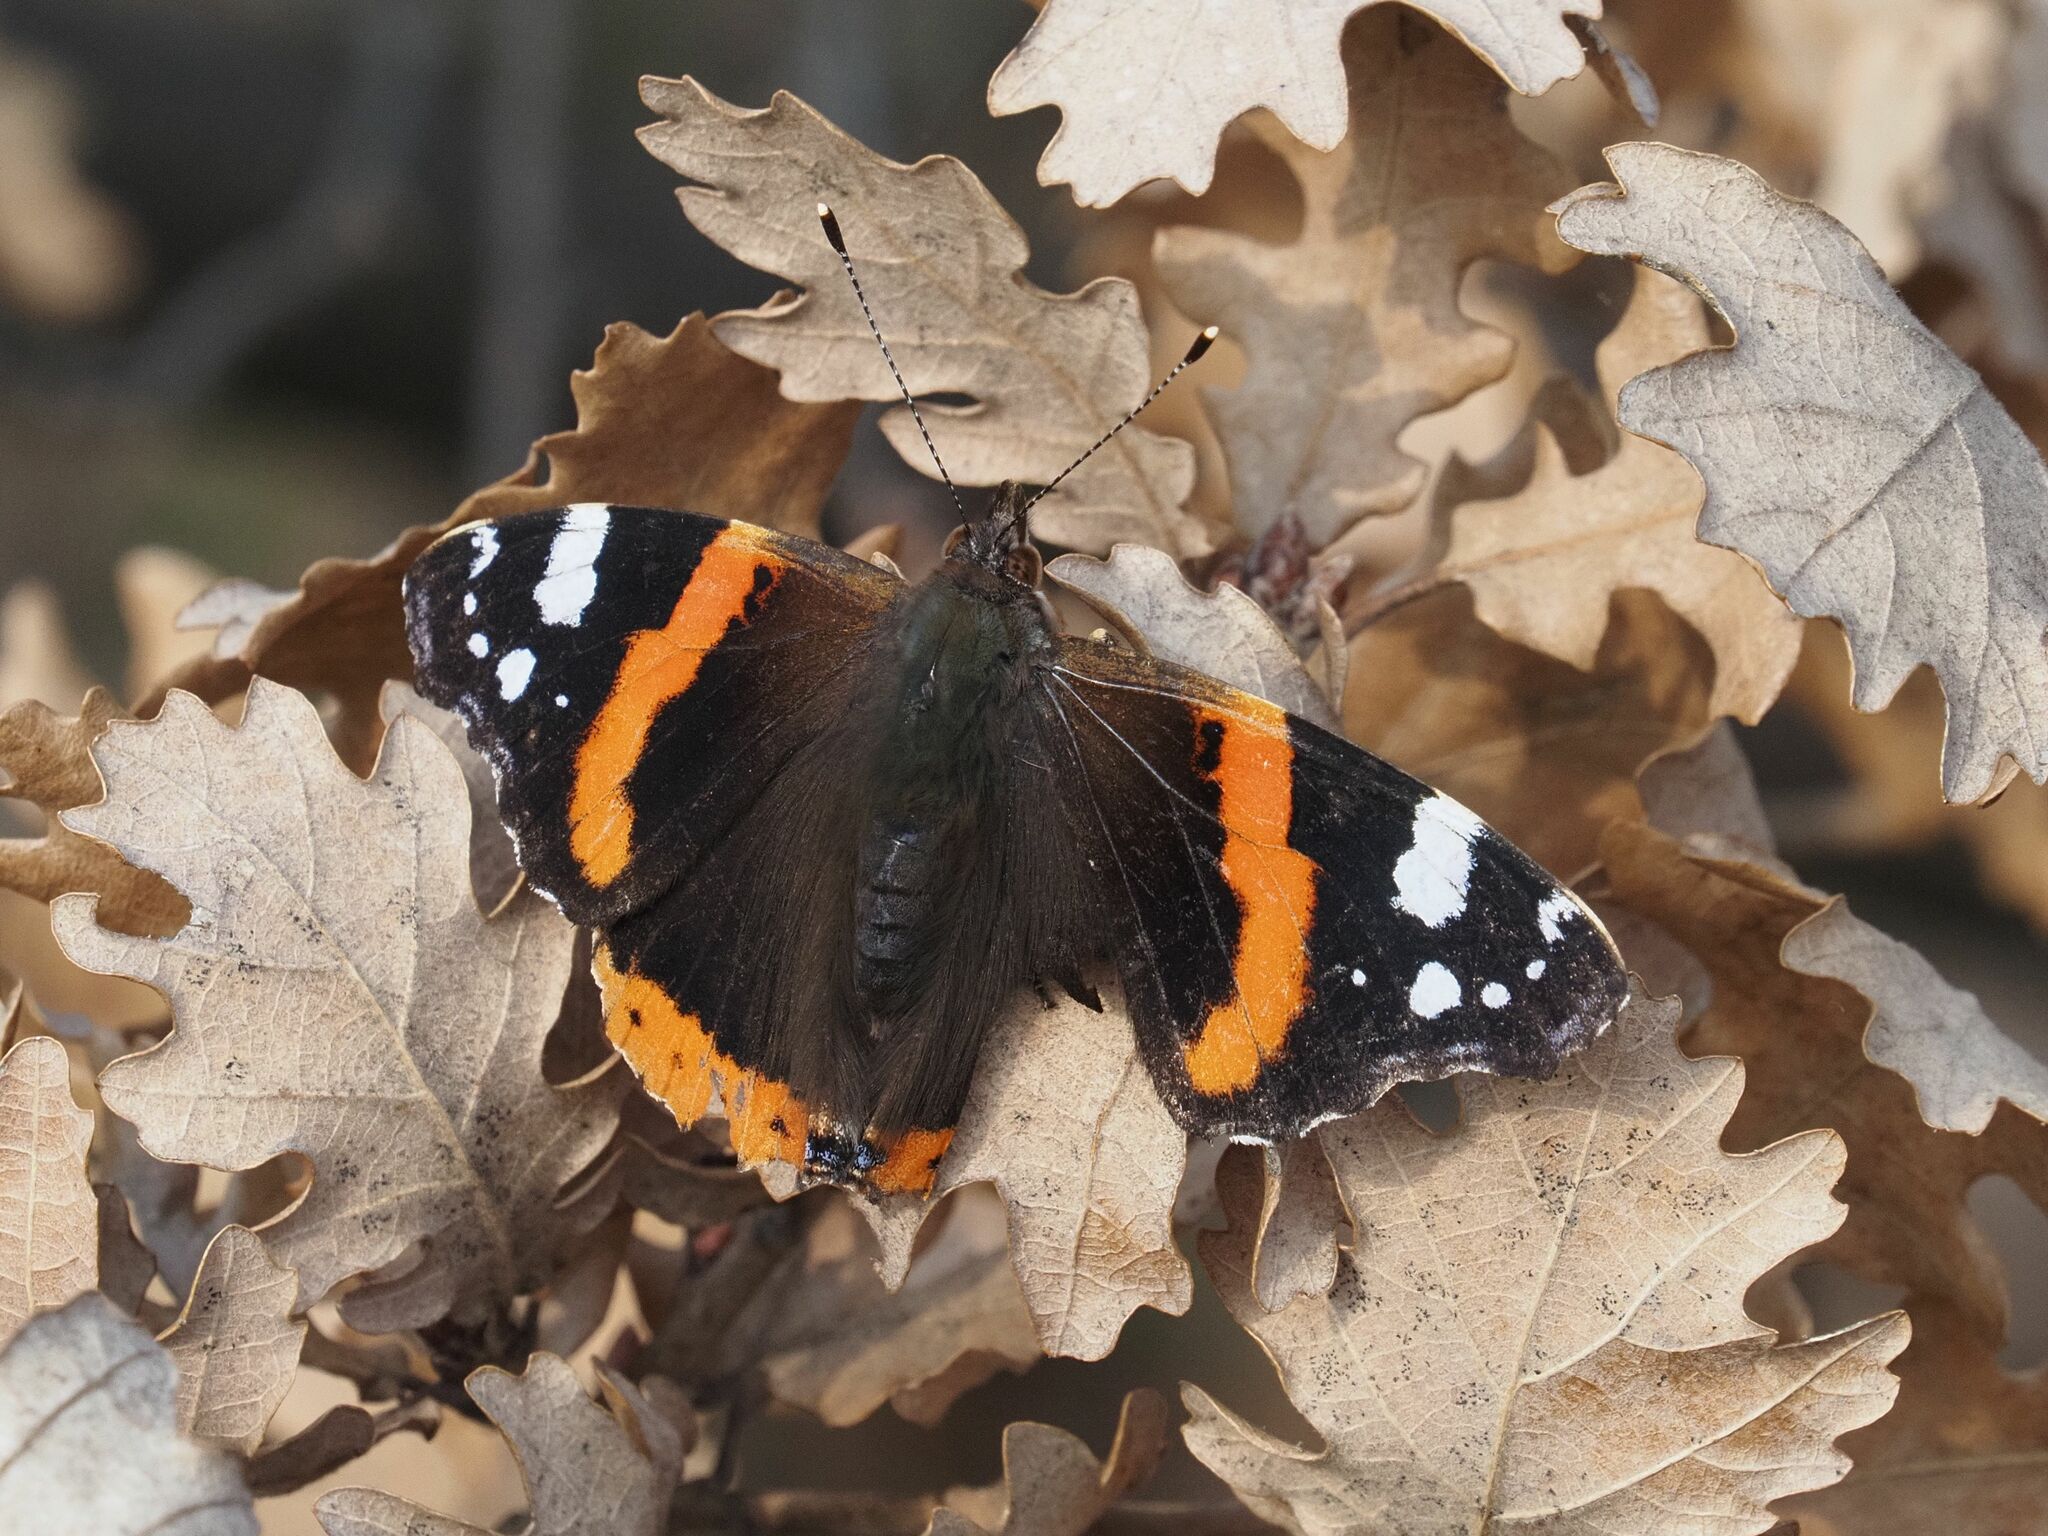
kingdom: Animalia
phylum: Arthropoda
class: Insecta
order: Lepidoptera
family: Nymphalidae
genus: Vanessa
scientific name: Vanessa atalanta
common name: Red admiral
